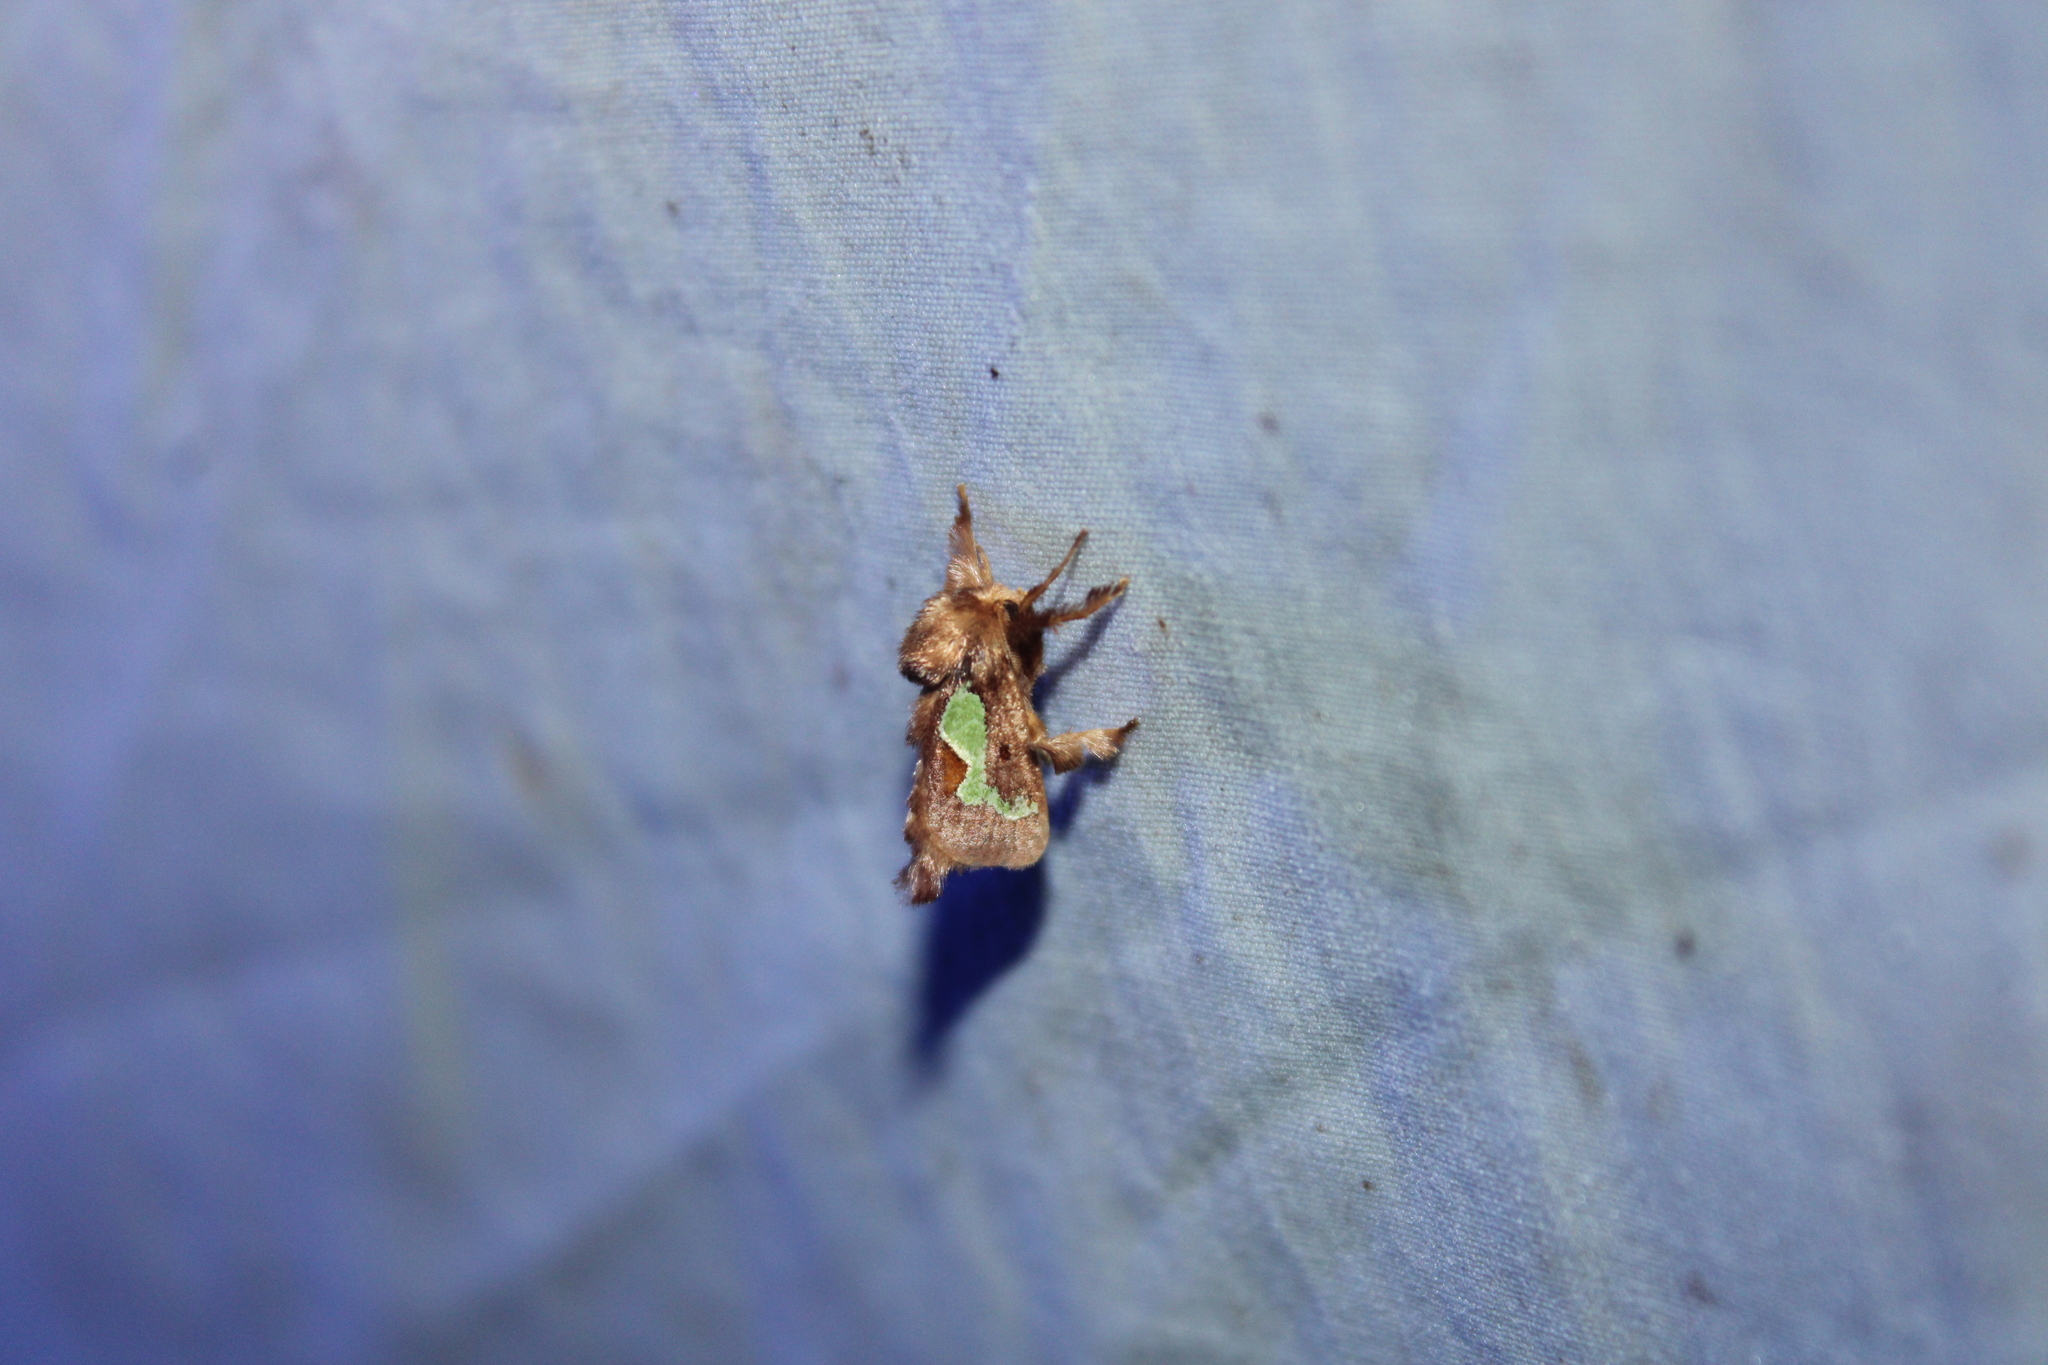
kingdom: Animalia
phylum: Arthropoda
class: Insecta
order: Lepidoptera
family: Limacodidae
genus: Euclea
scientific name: Euclea delphinii
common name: Spiny oak-slug moth
